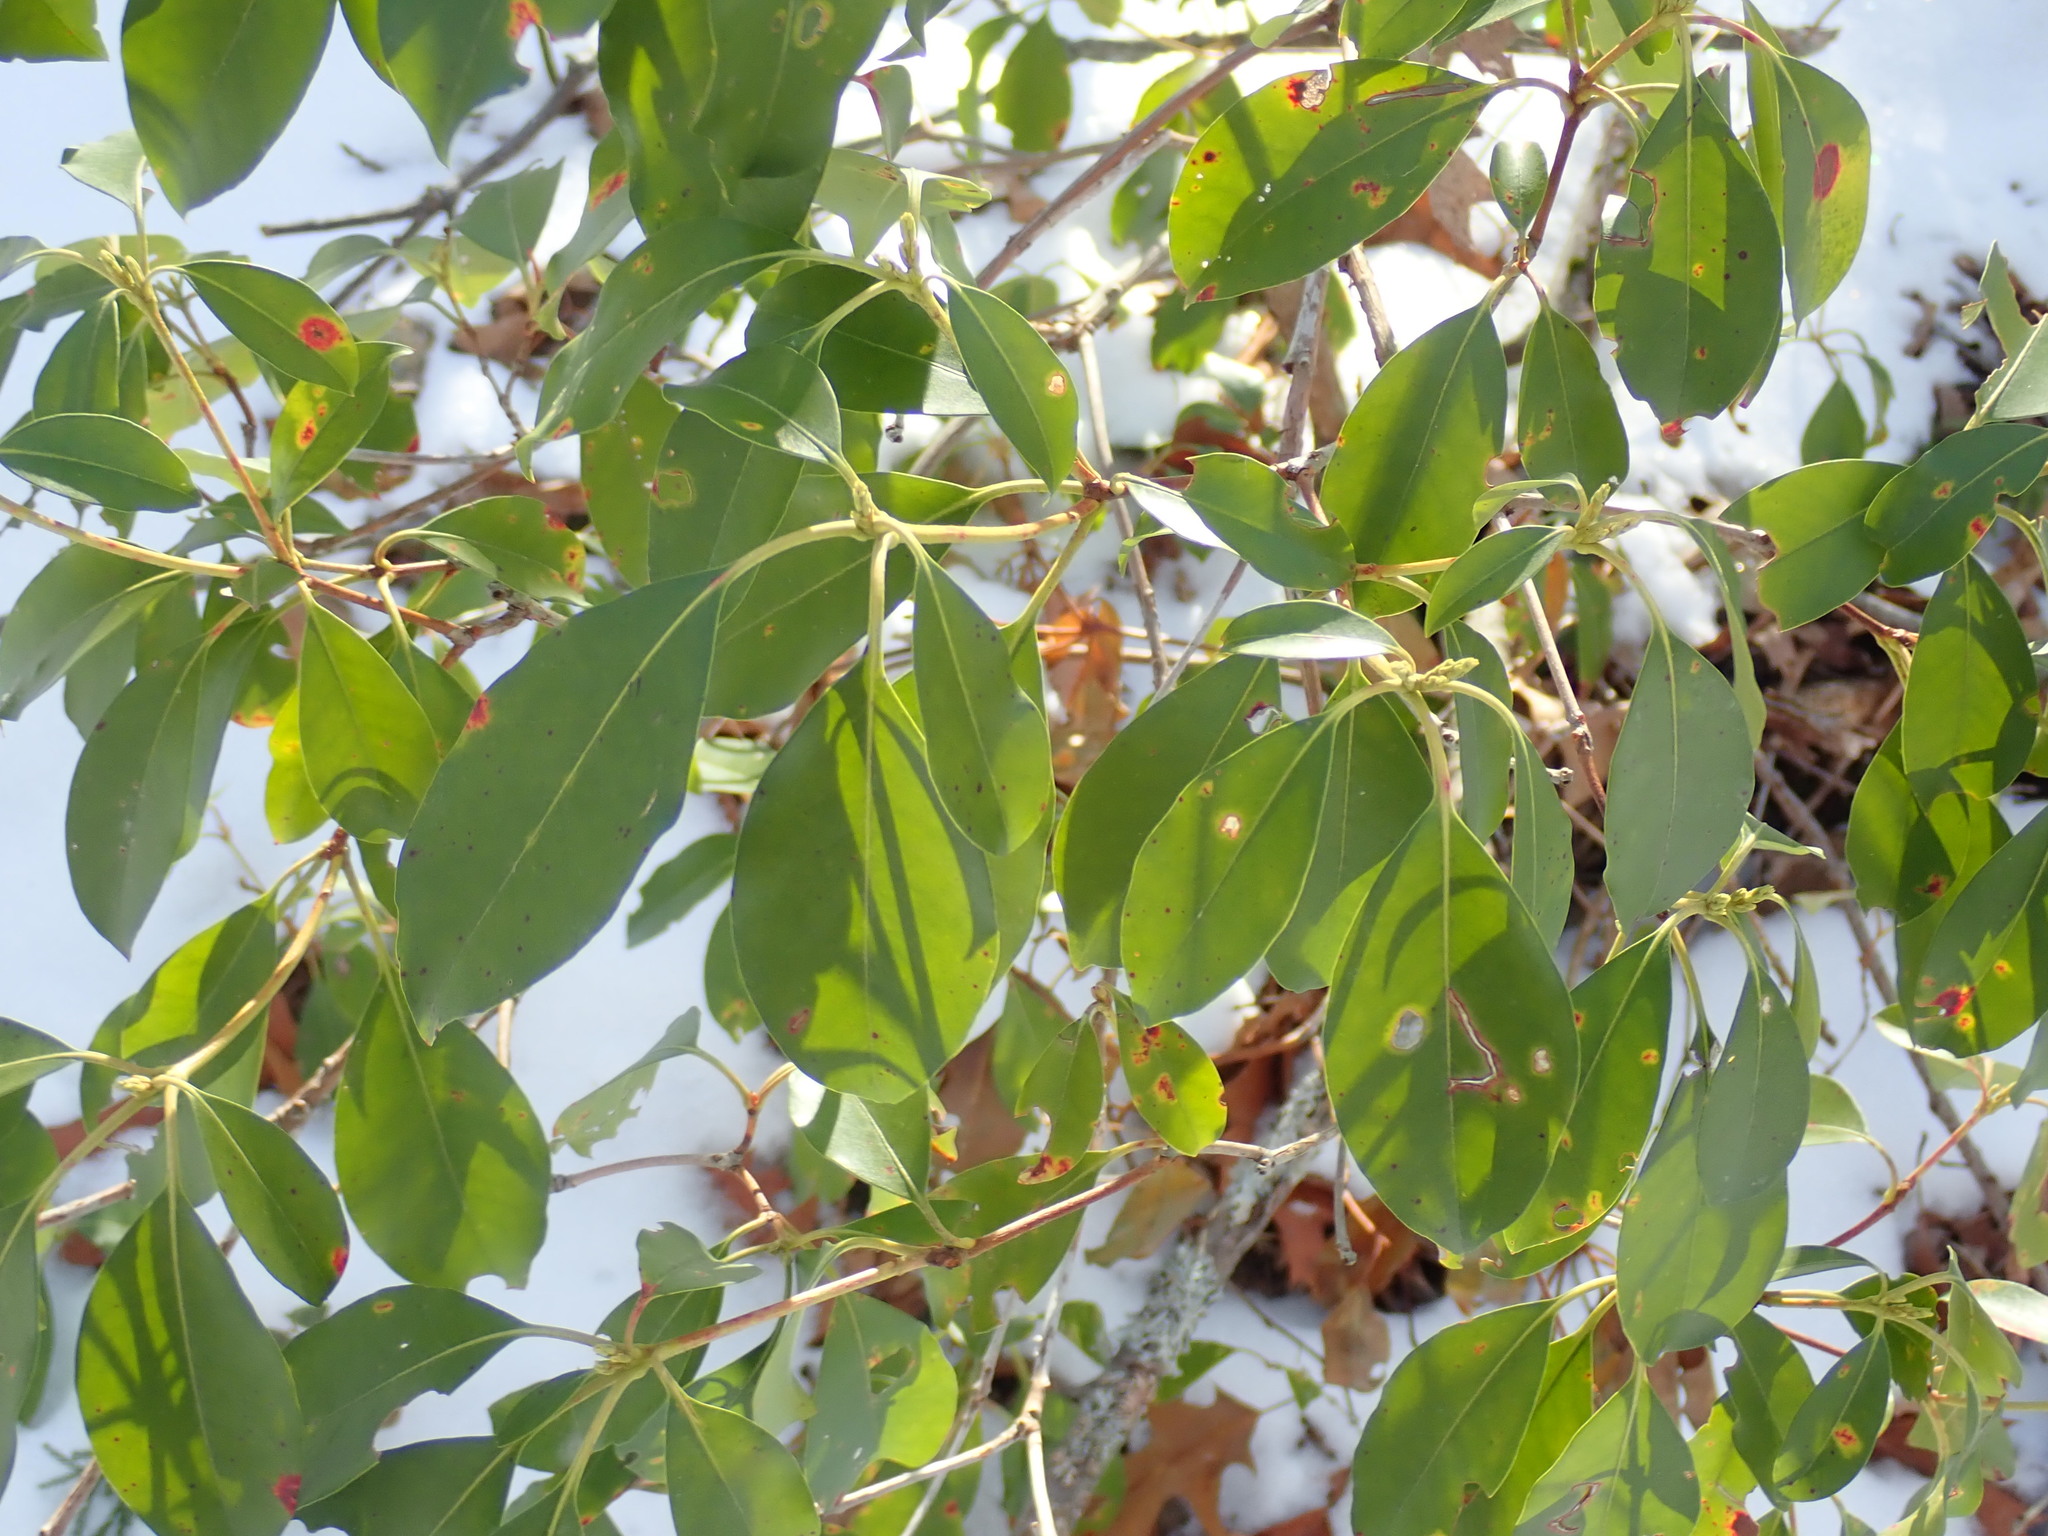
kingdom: Plantae
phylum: Tracheophyta
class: Magnoliopsida
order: Ericales
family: Ericaceae
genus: Kalmia
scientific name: Kalmia latifolia
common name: Mountain-laurel
